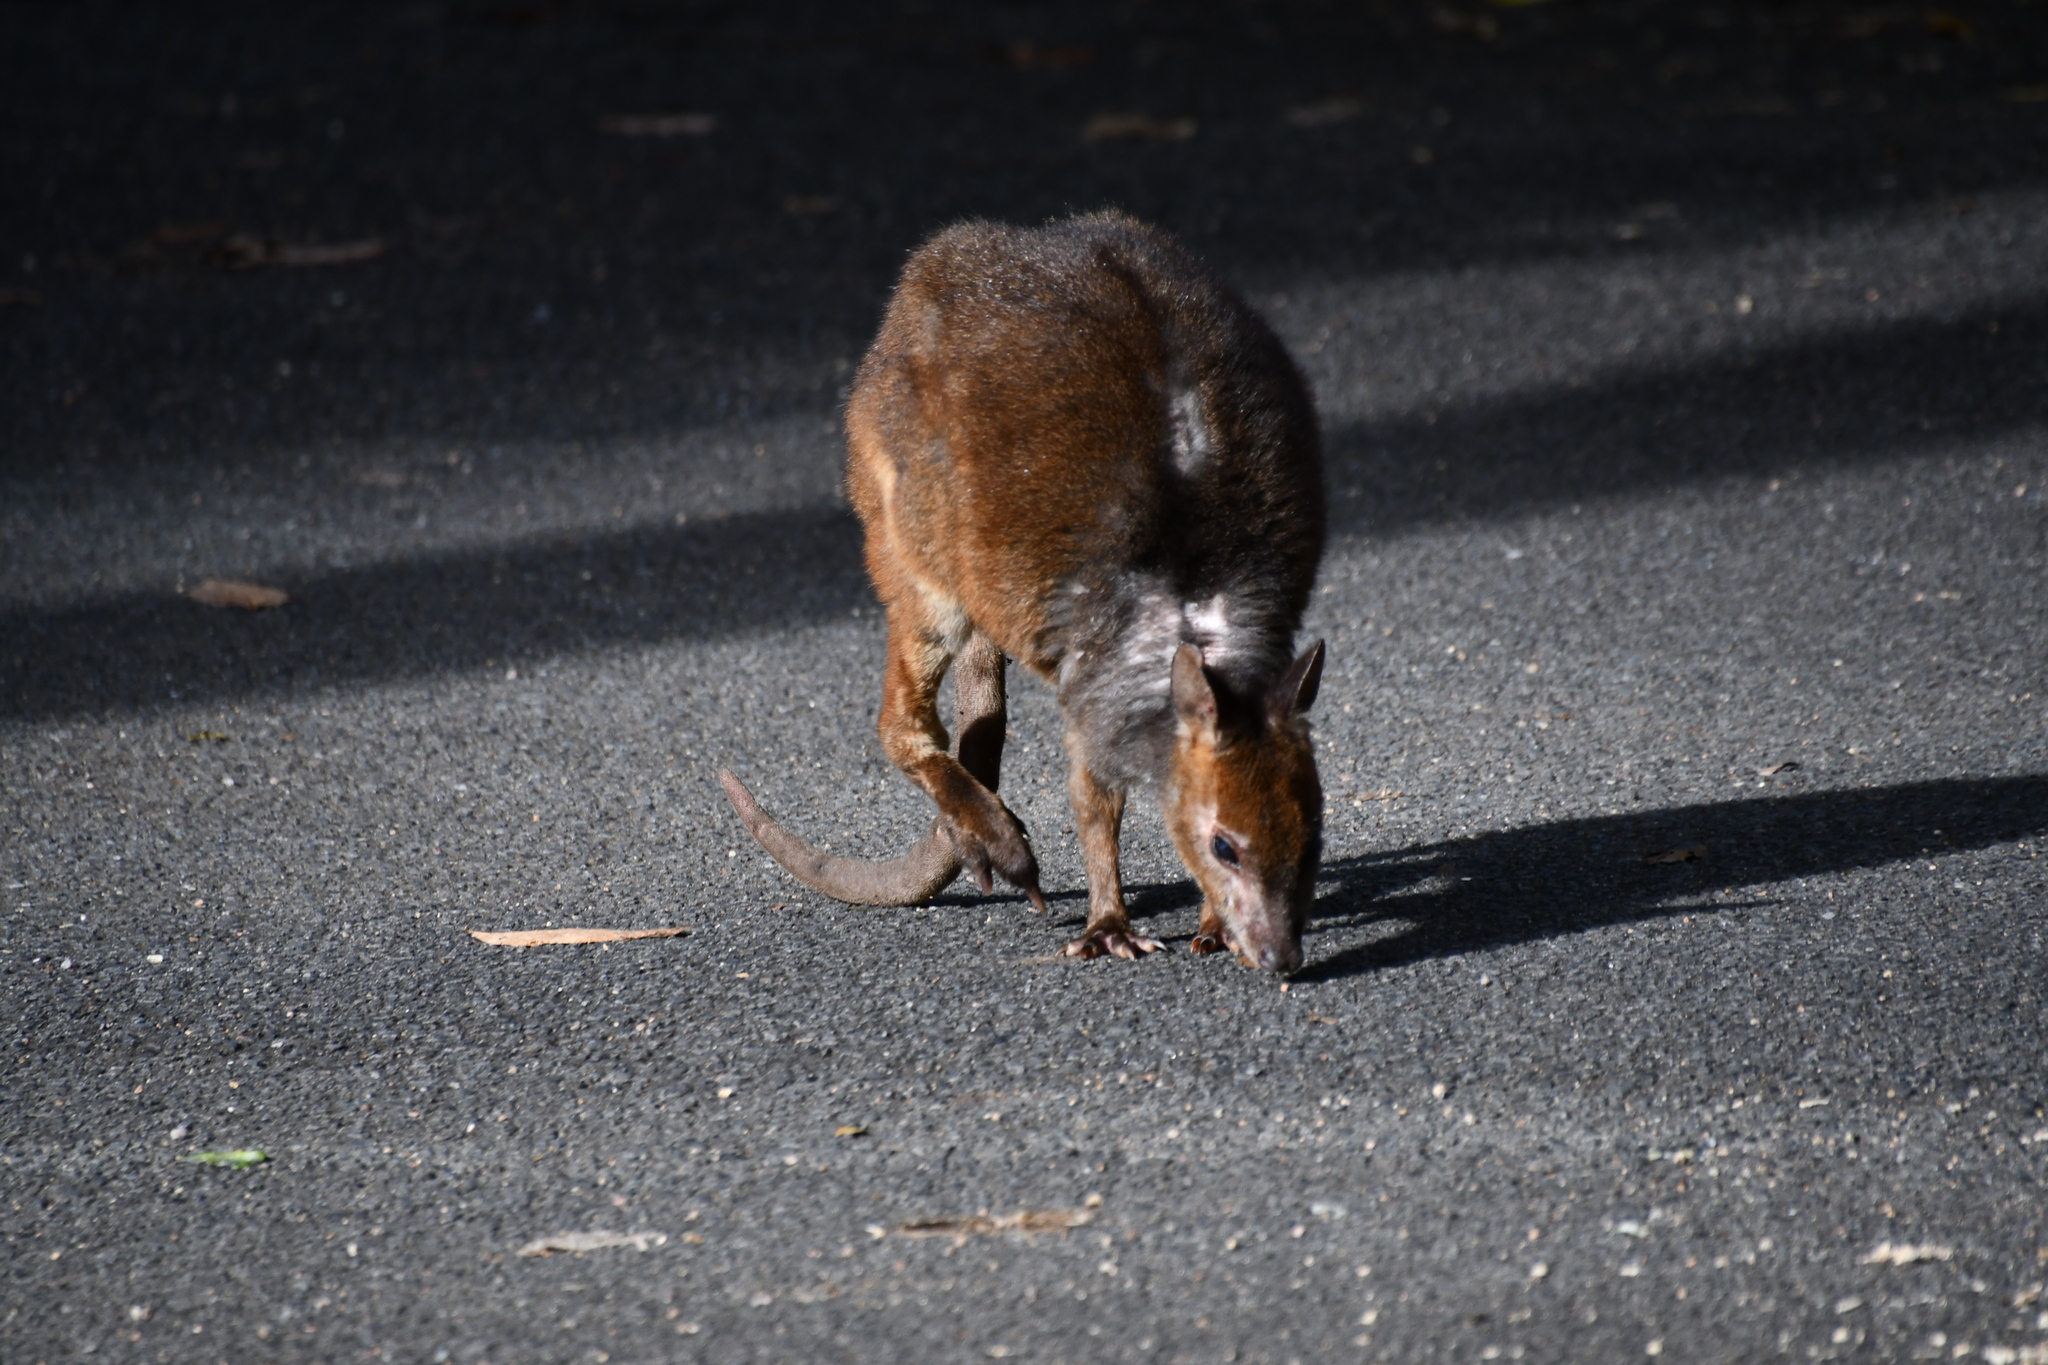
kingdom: Animalia
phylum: Chordata
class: Mammalia
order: Diprotodontia
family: Macropodidae
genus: Thylogale
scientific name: Thylogale stigmatica
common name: Red-legged pademelon
